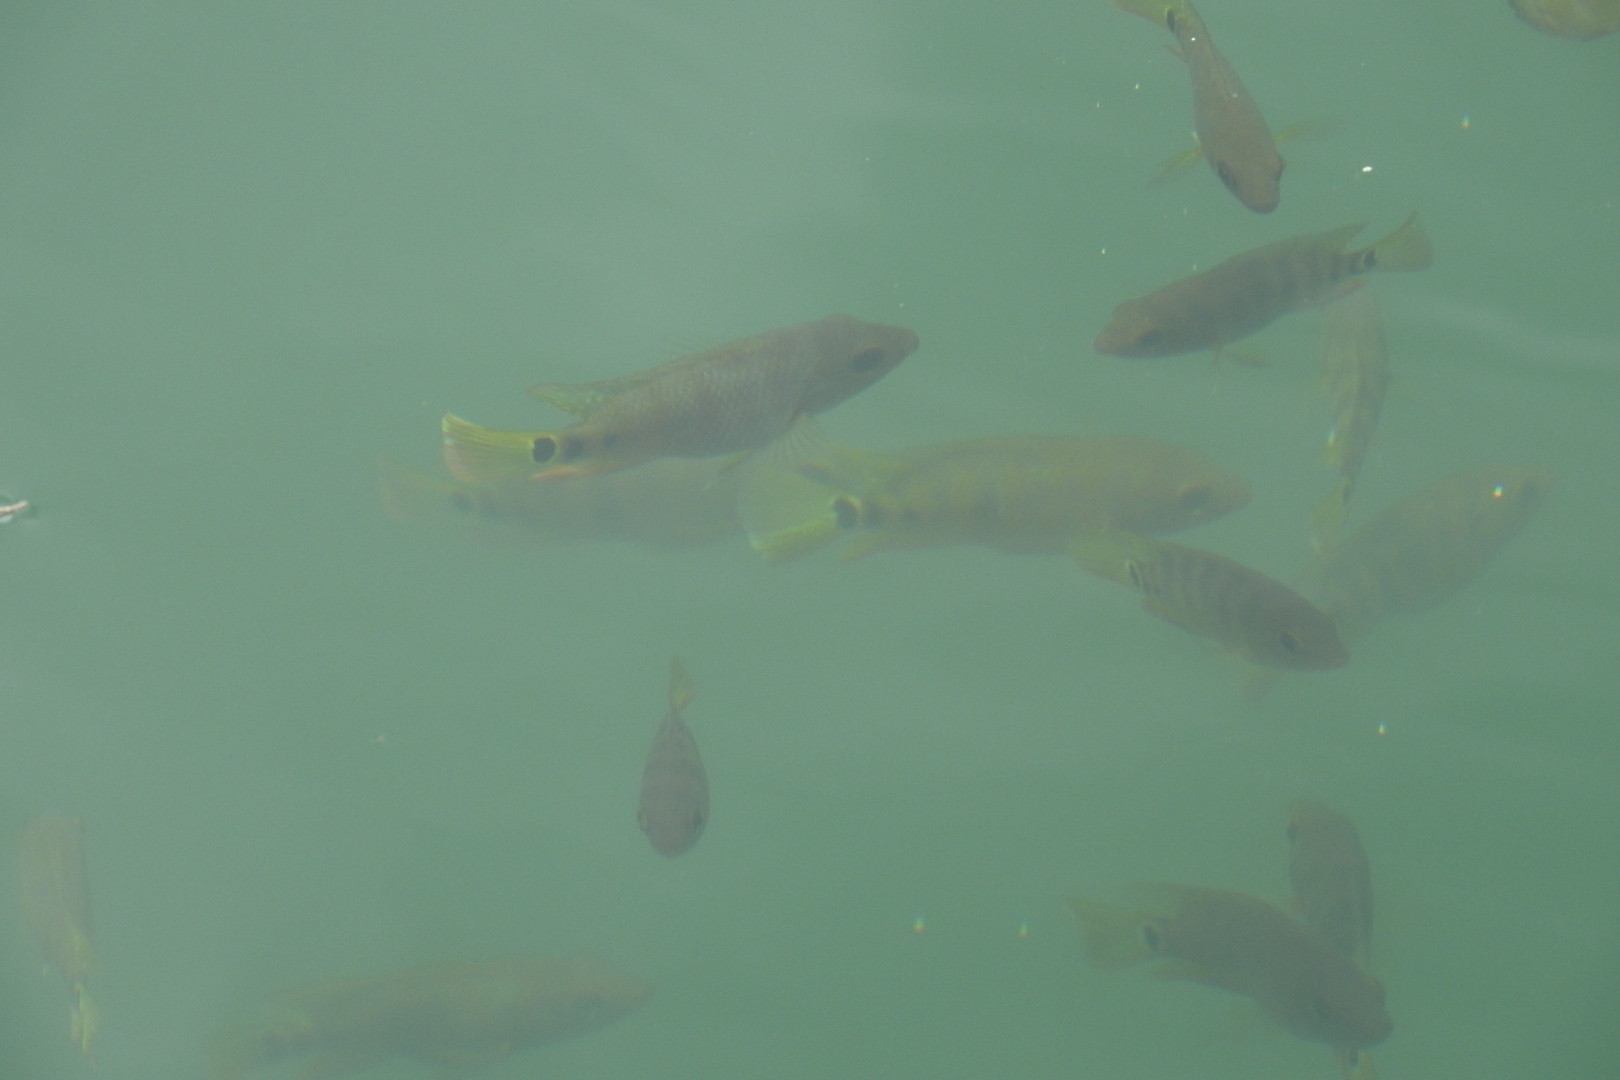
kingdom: Animalia
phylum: Chordata
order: Perciformes
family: Cichlidae
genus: Mayaheros
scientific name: Mayaheros urophthalmus
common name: Mayan cichlid
